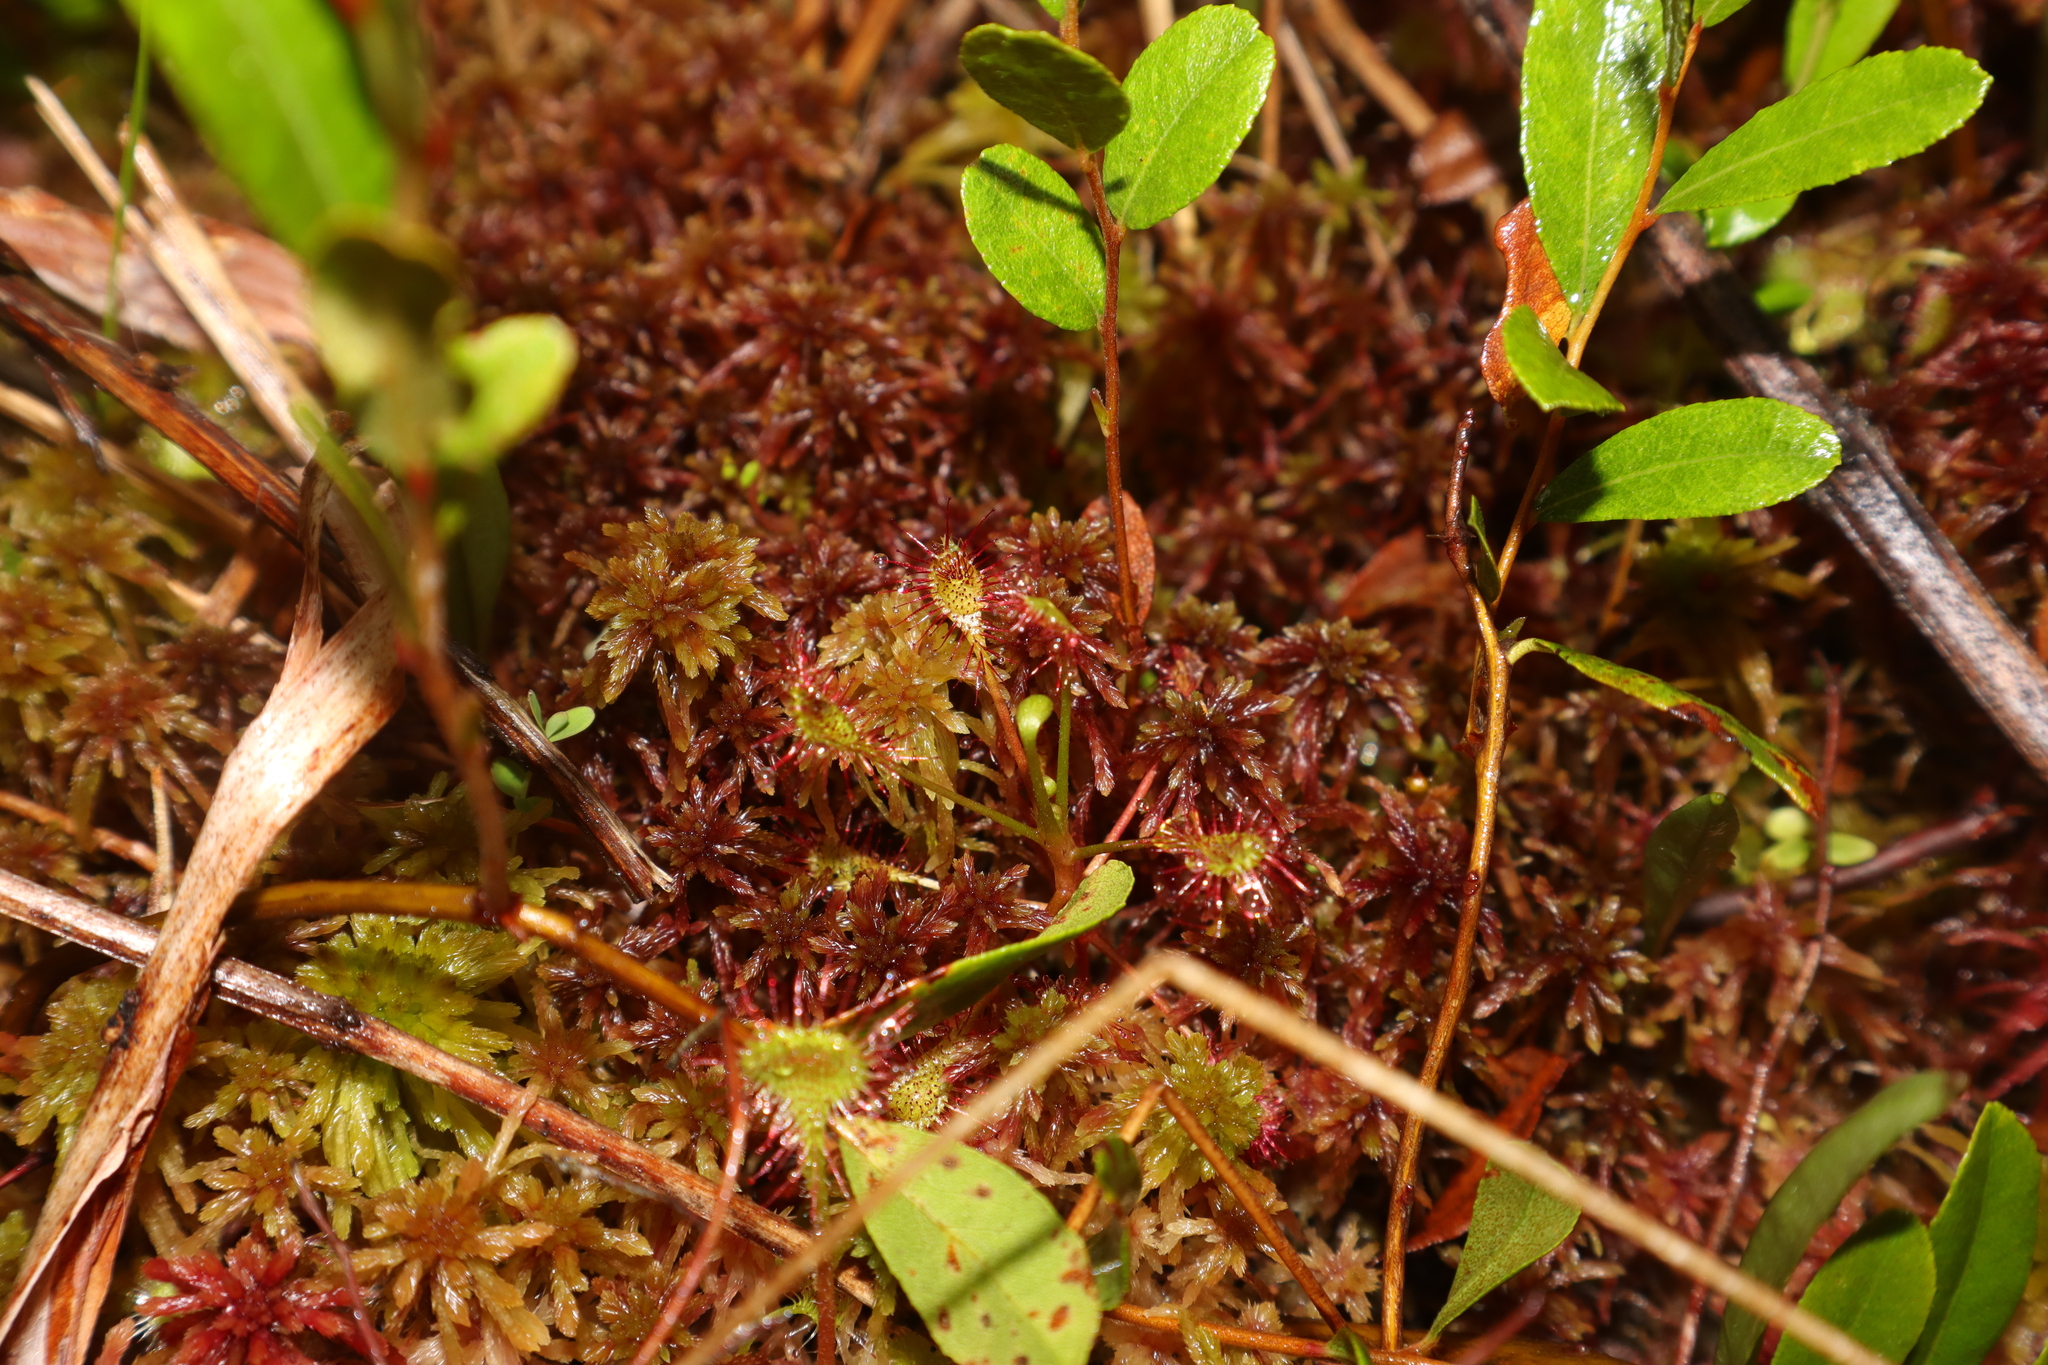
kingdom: Plantae
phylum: Tracheophyta
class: Magnoliopsida
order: Caryophyllales
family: Droseraceae
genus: Drosera
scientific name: Drosera intermedia
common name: Oblong-leaved sundew
